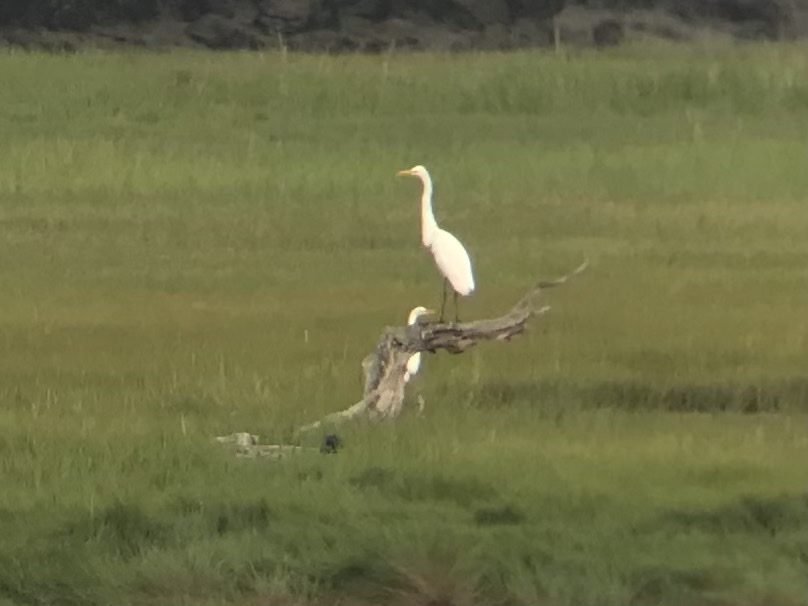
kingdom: Animalia
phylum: Chordata
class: Aves
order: Pelecaniformes
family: Ardeidae
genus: Ardea
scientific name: Ardea alba
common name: Great egret
